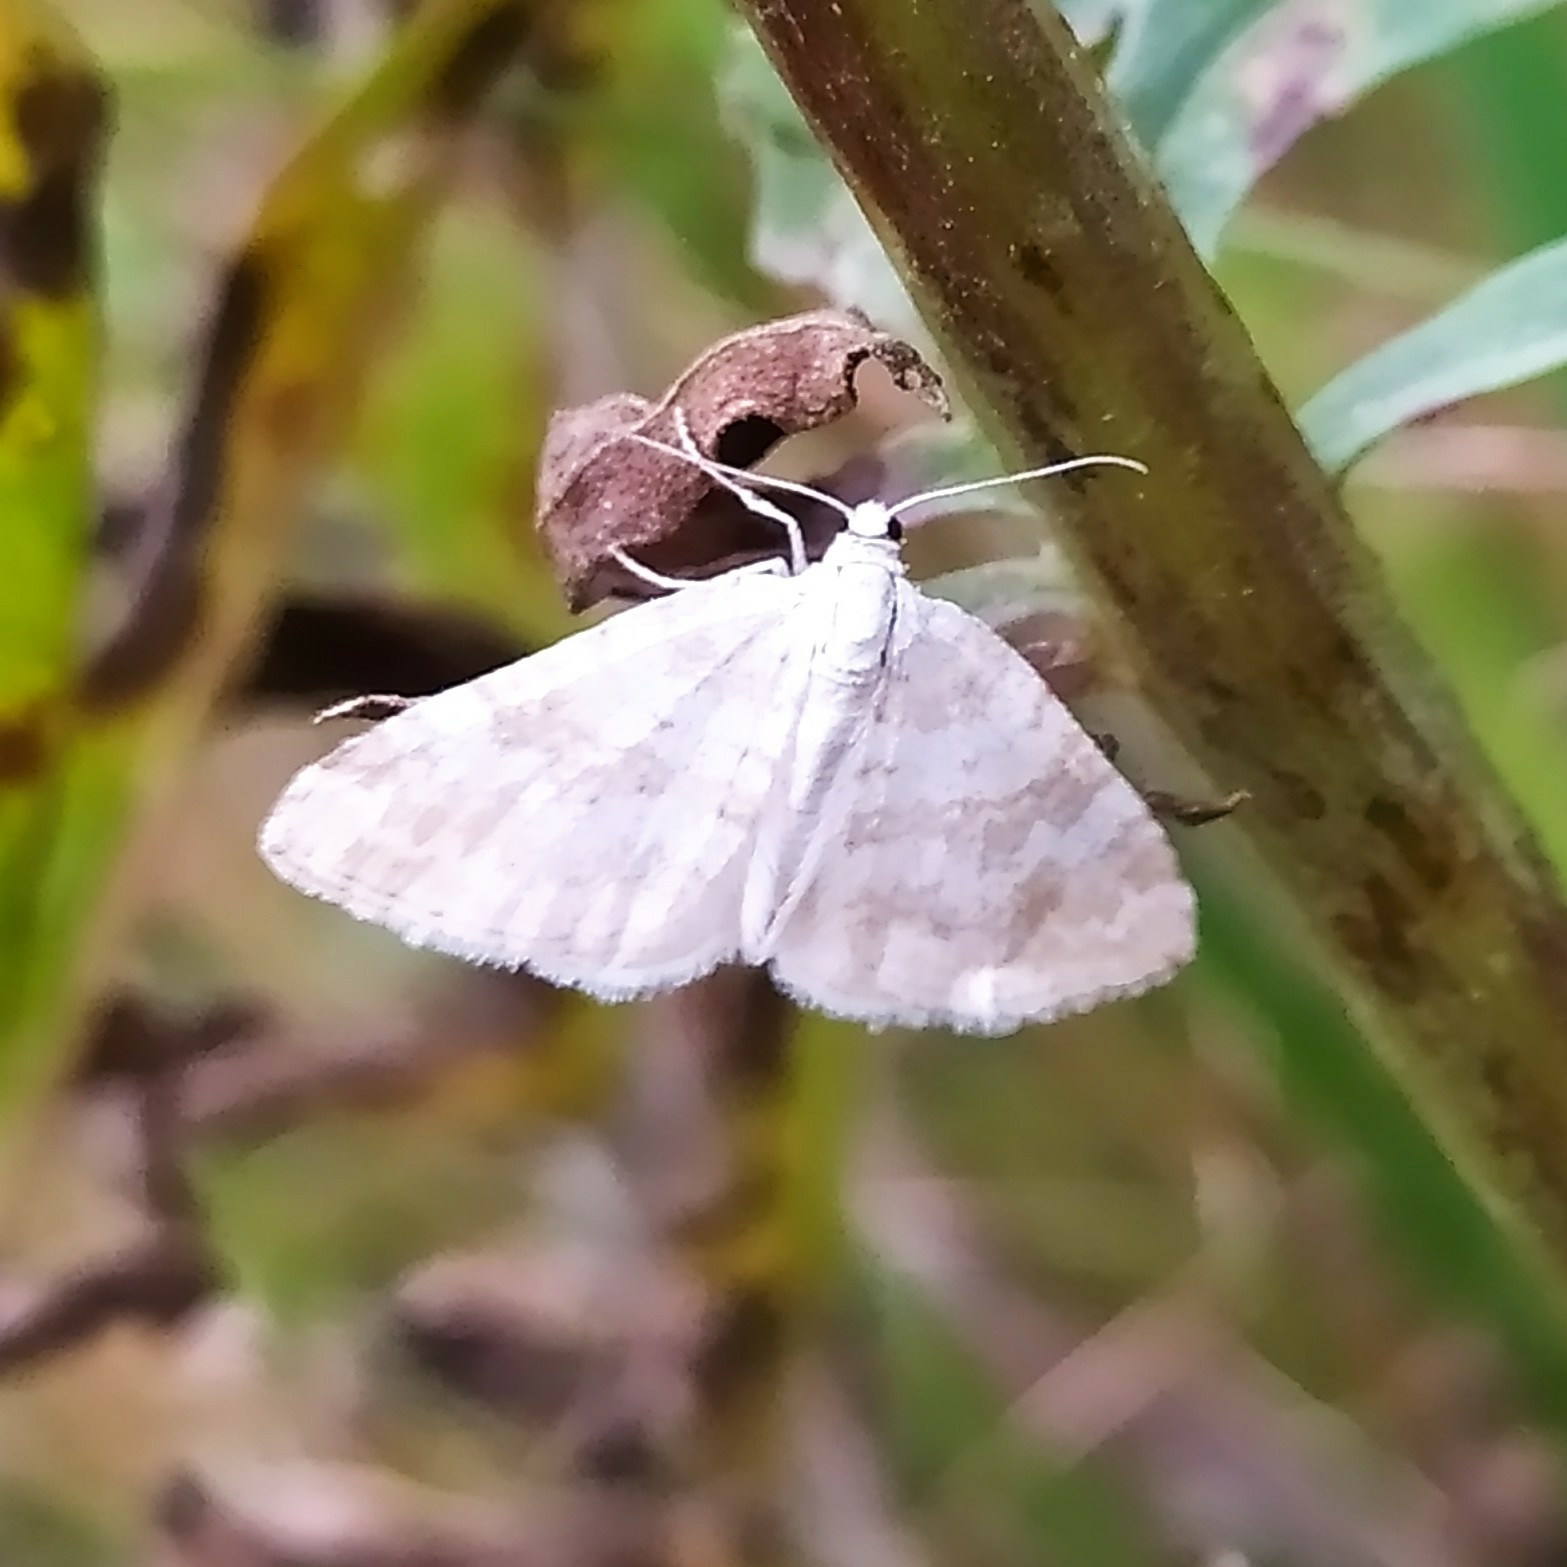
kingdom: Animalia
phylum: Arthropoda
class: Insecta
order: Lepidoptera
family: Geometridae
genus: Perizoma
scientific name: Perizoma albulata
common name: Grass rivulet
